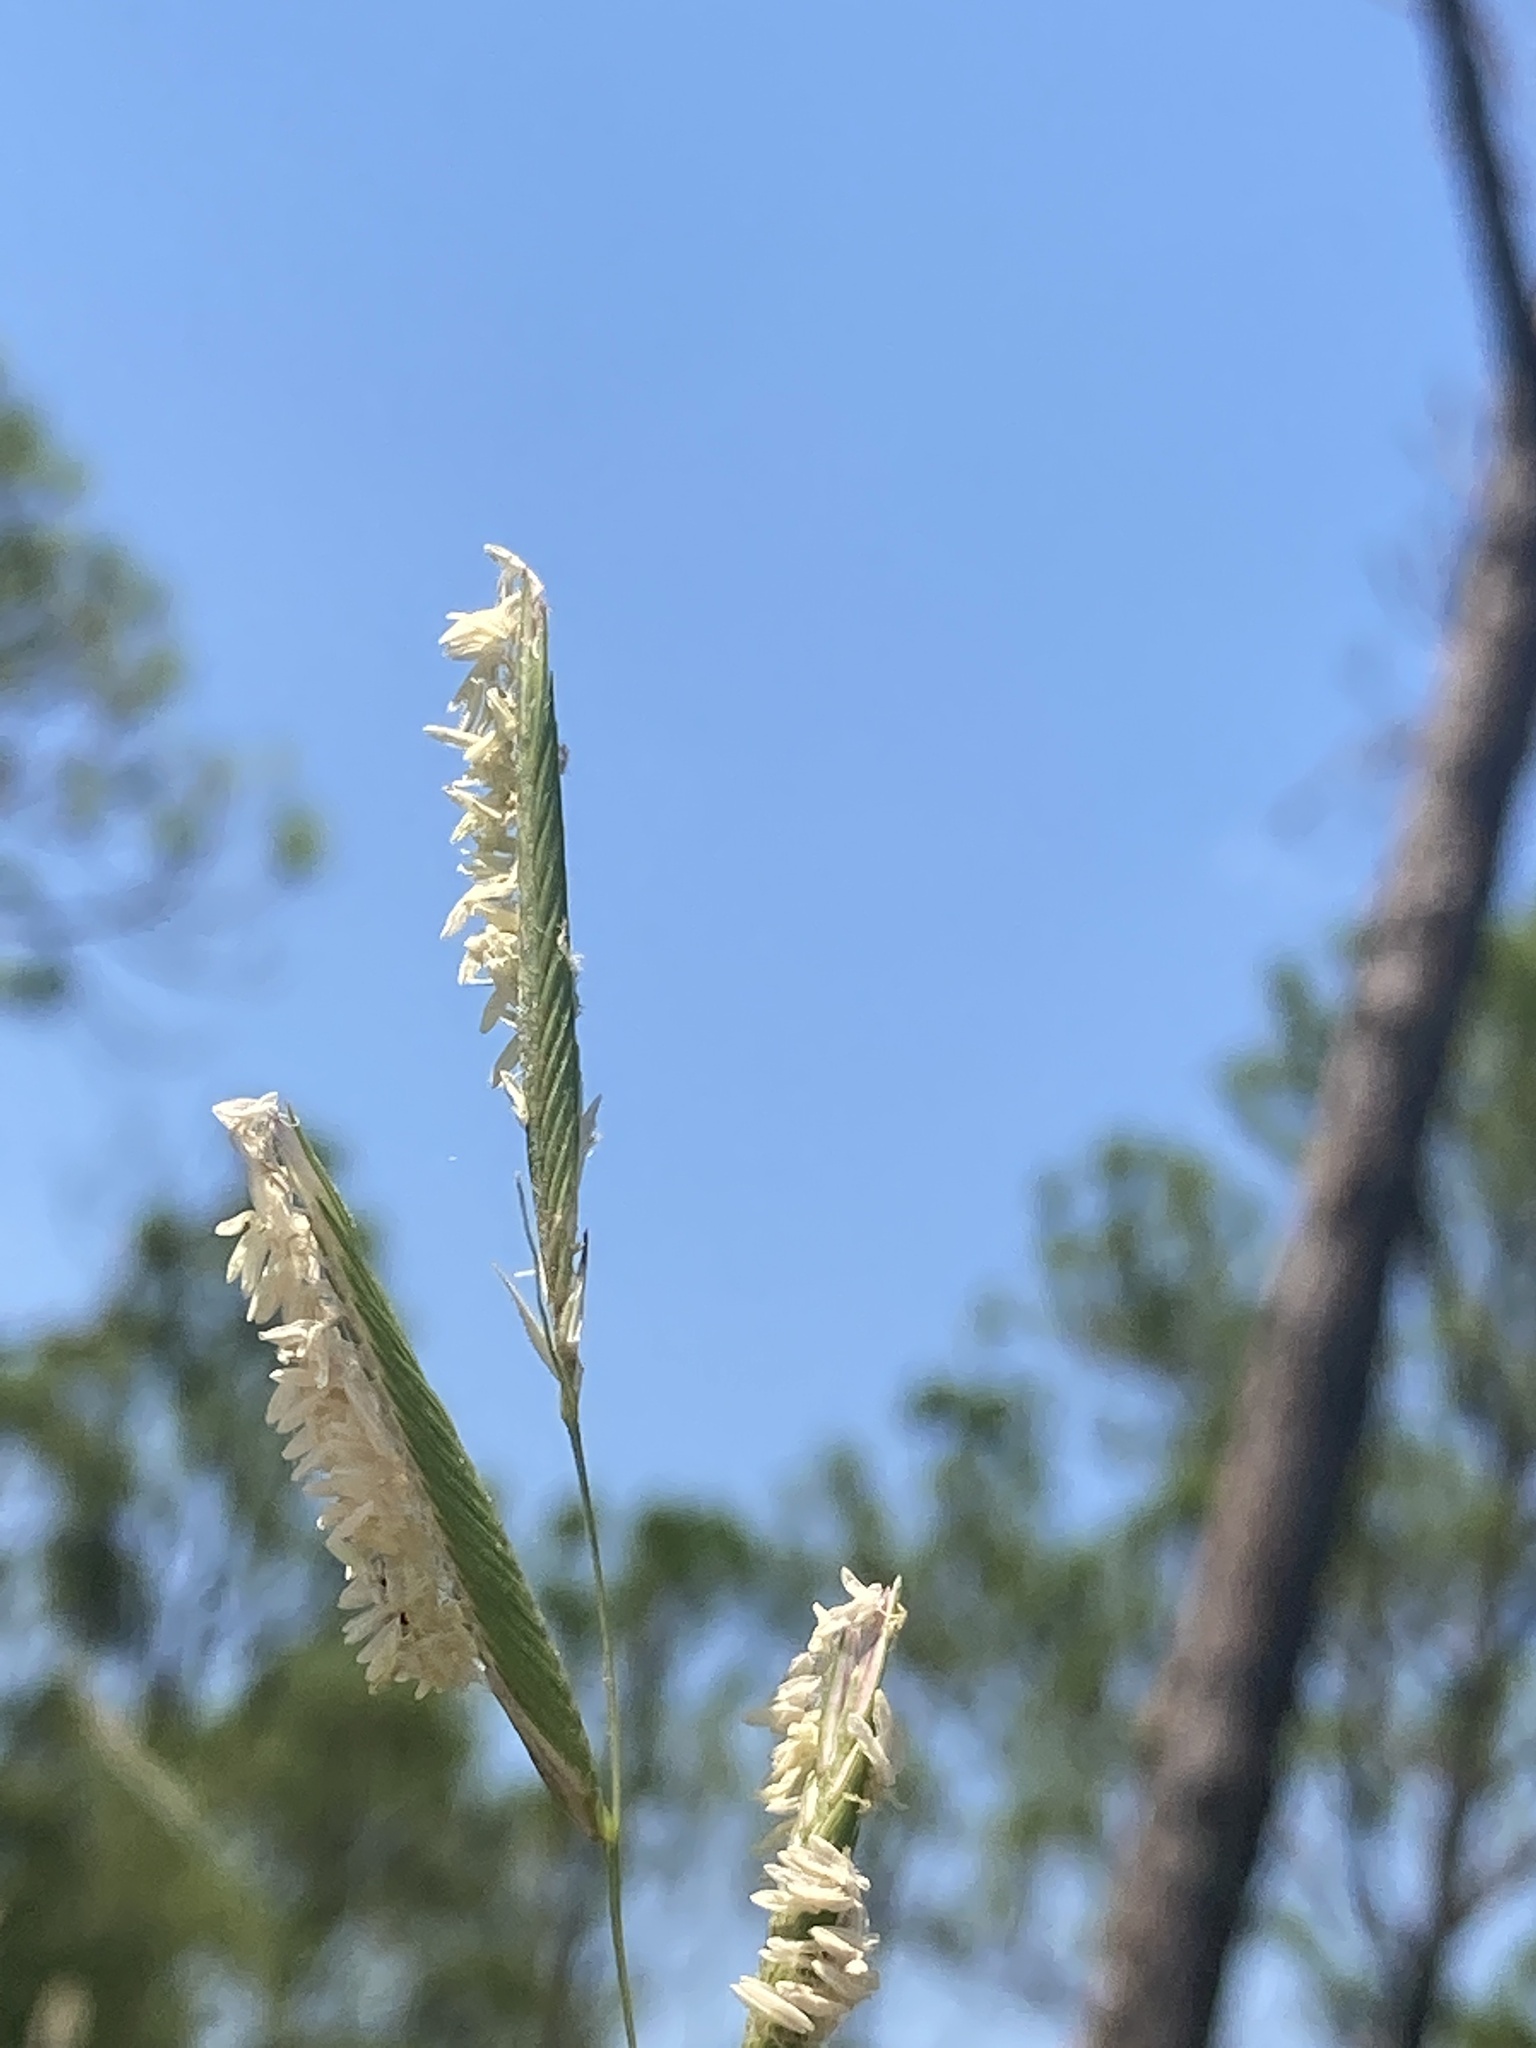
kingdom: Plantae
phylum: Tracheophyta
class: Liliopsida
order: Poales
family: Poaceae
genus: Sporobolus
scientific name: Sporobolus pumilus
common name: Highwater grass
